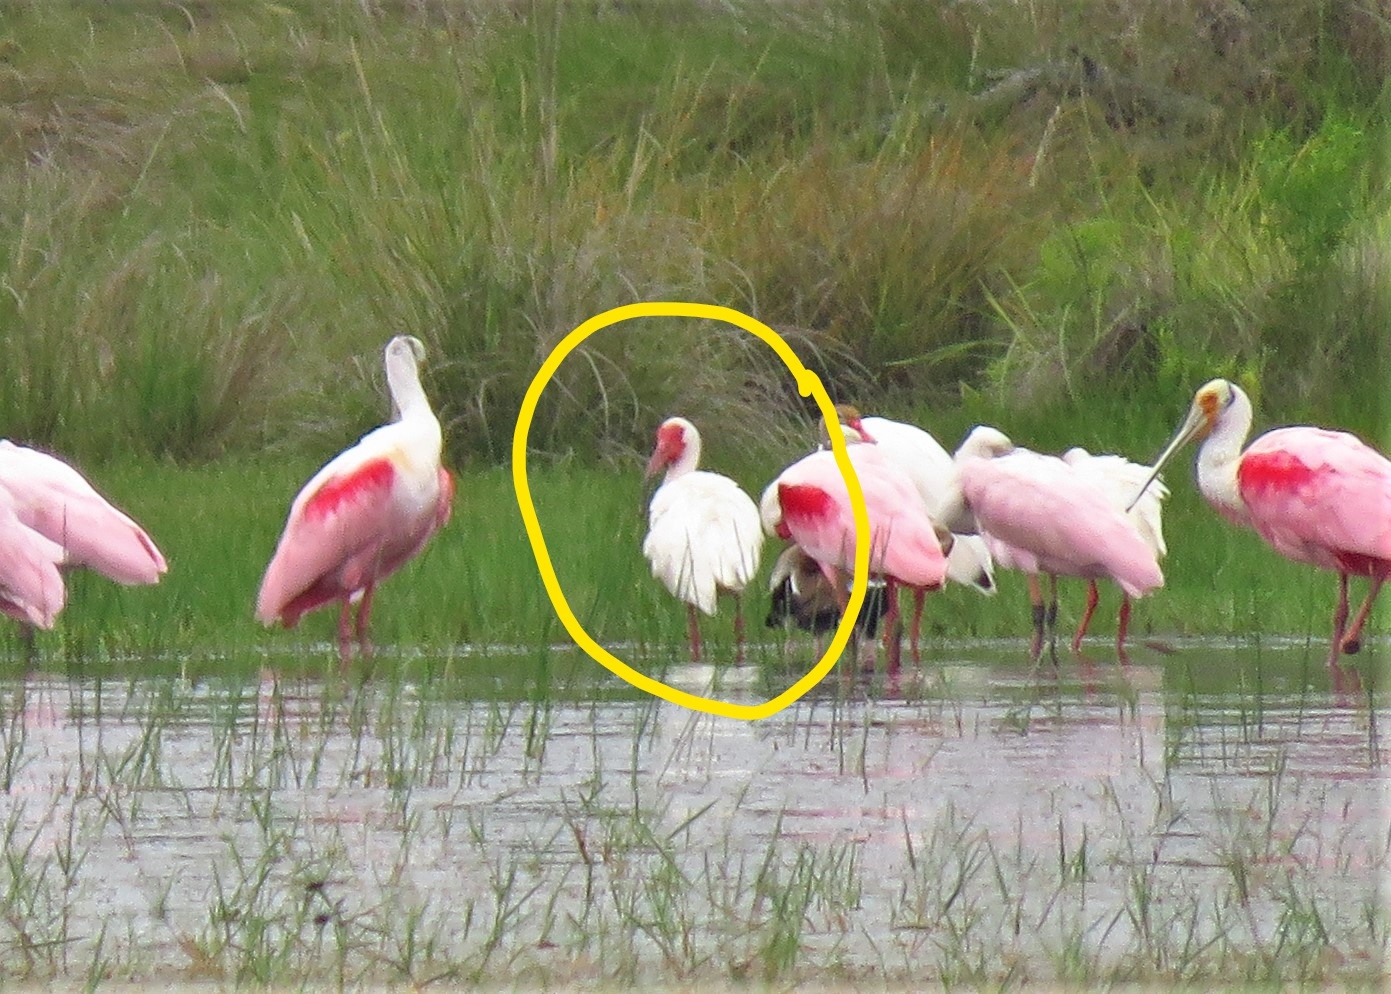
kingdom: Animalia
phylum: Chordata
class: Aves
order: Pelecaniformes
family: Threskiornithidae
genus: Eudocimus
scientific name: Eudocimus albus
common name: White ibis
